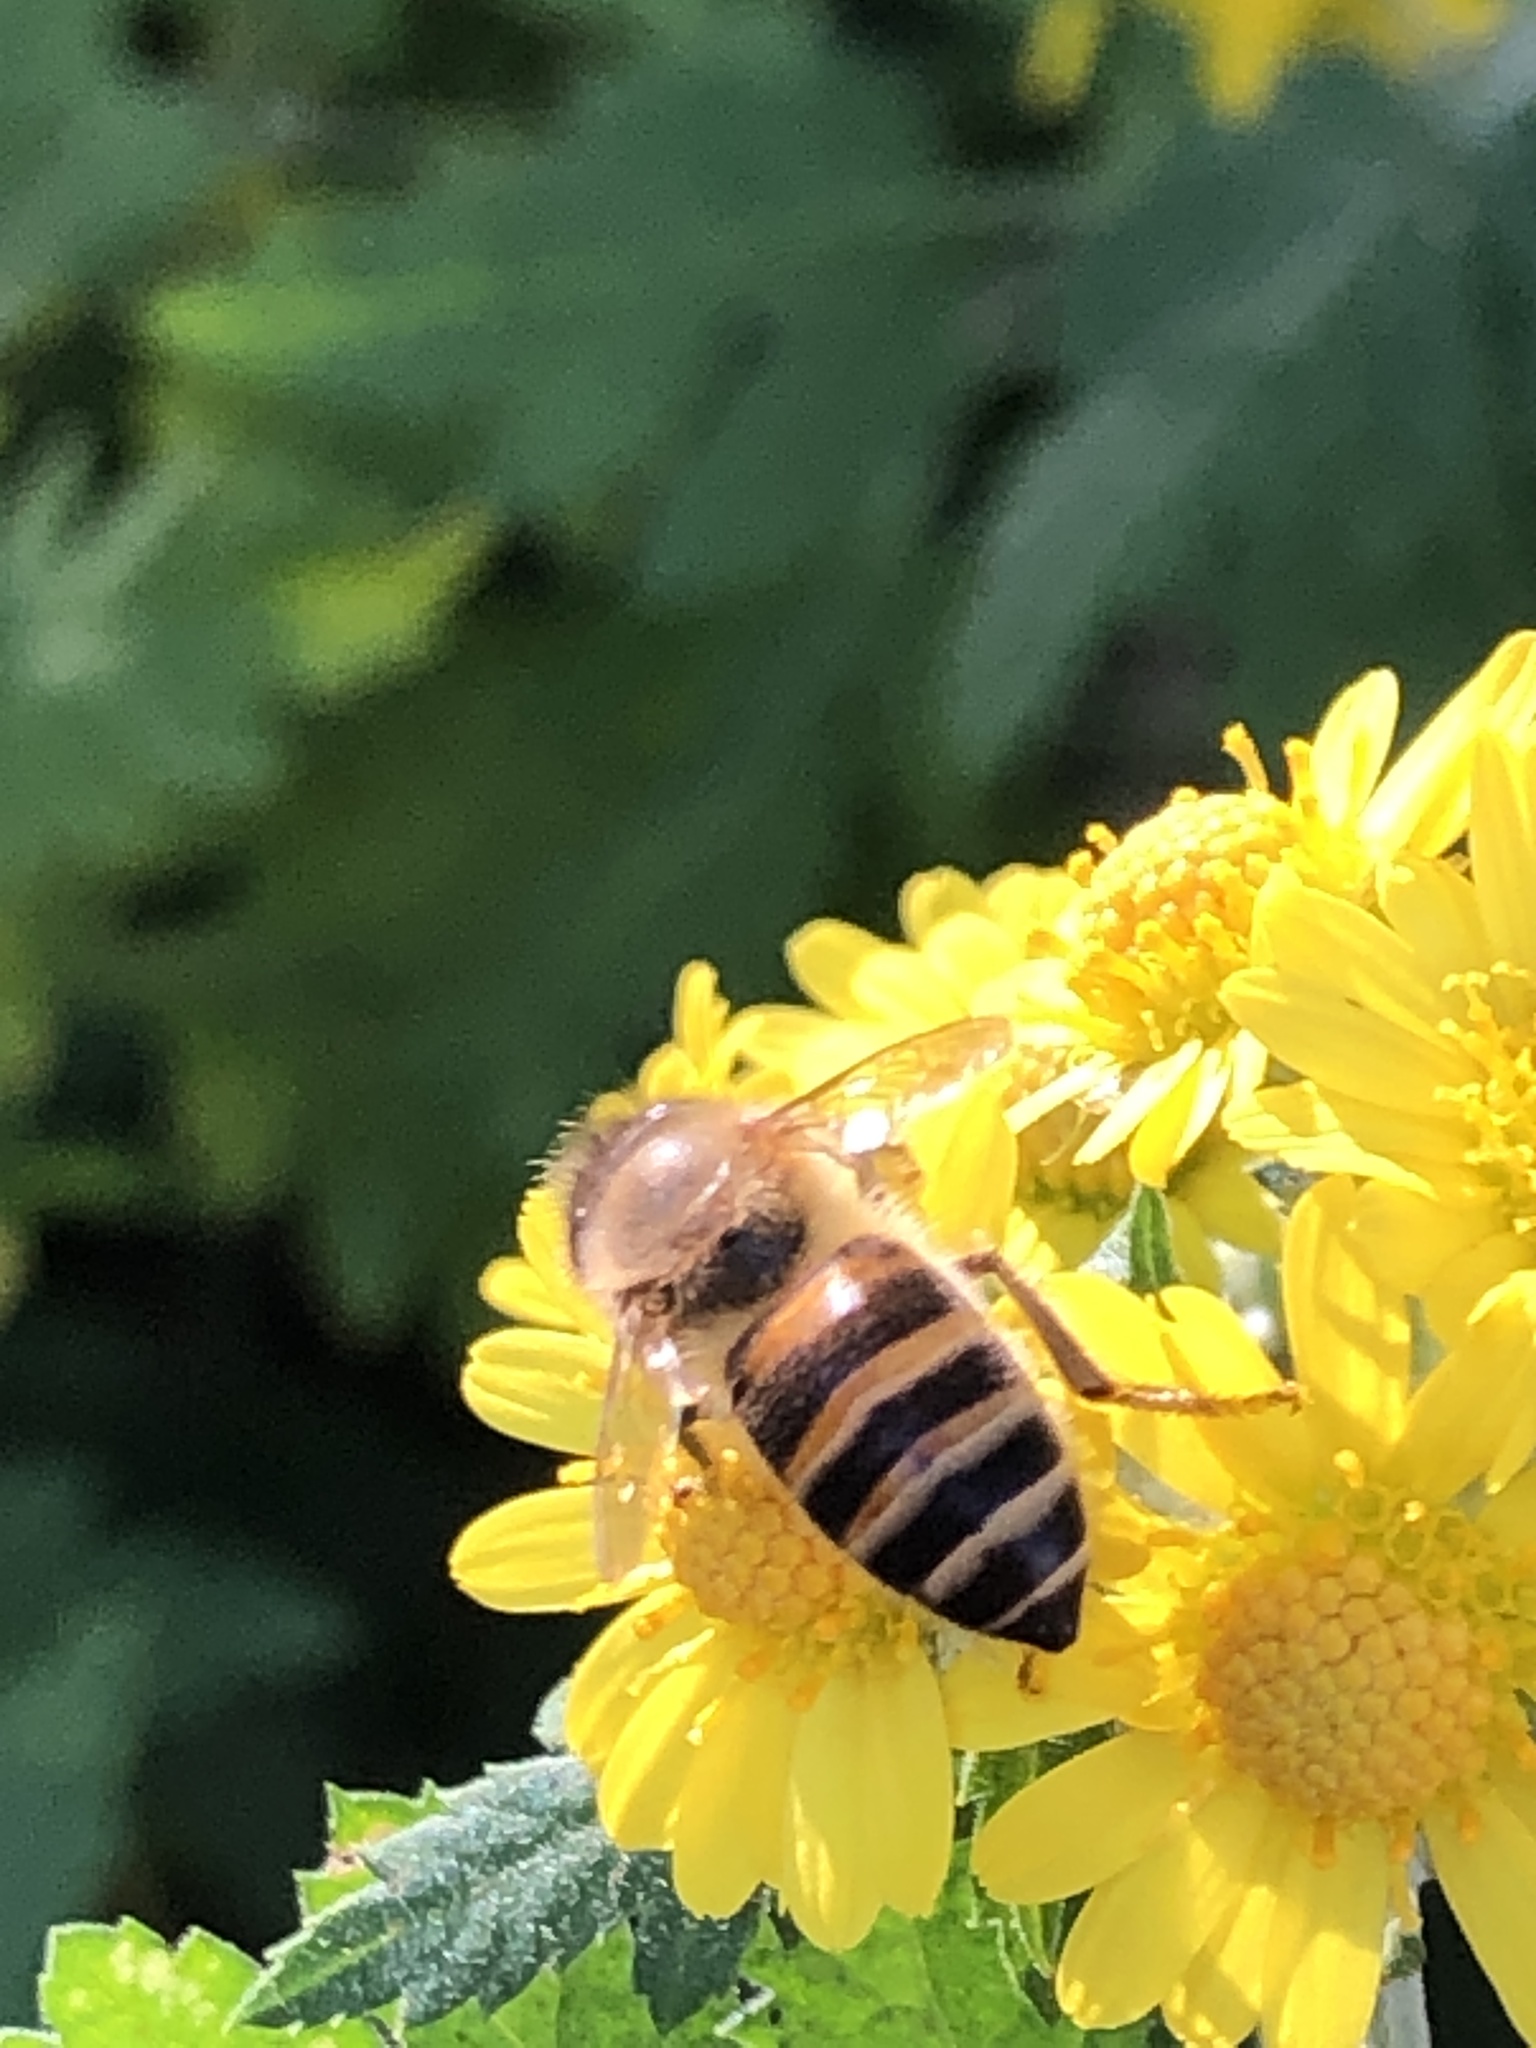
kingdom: Animalia
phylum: Arthropoda
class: Insecta
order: Hymenoptera
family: Apidae
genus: Apis
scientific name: Apis cerana
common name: Honey bee
